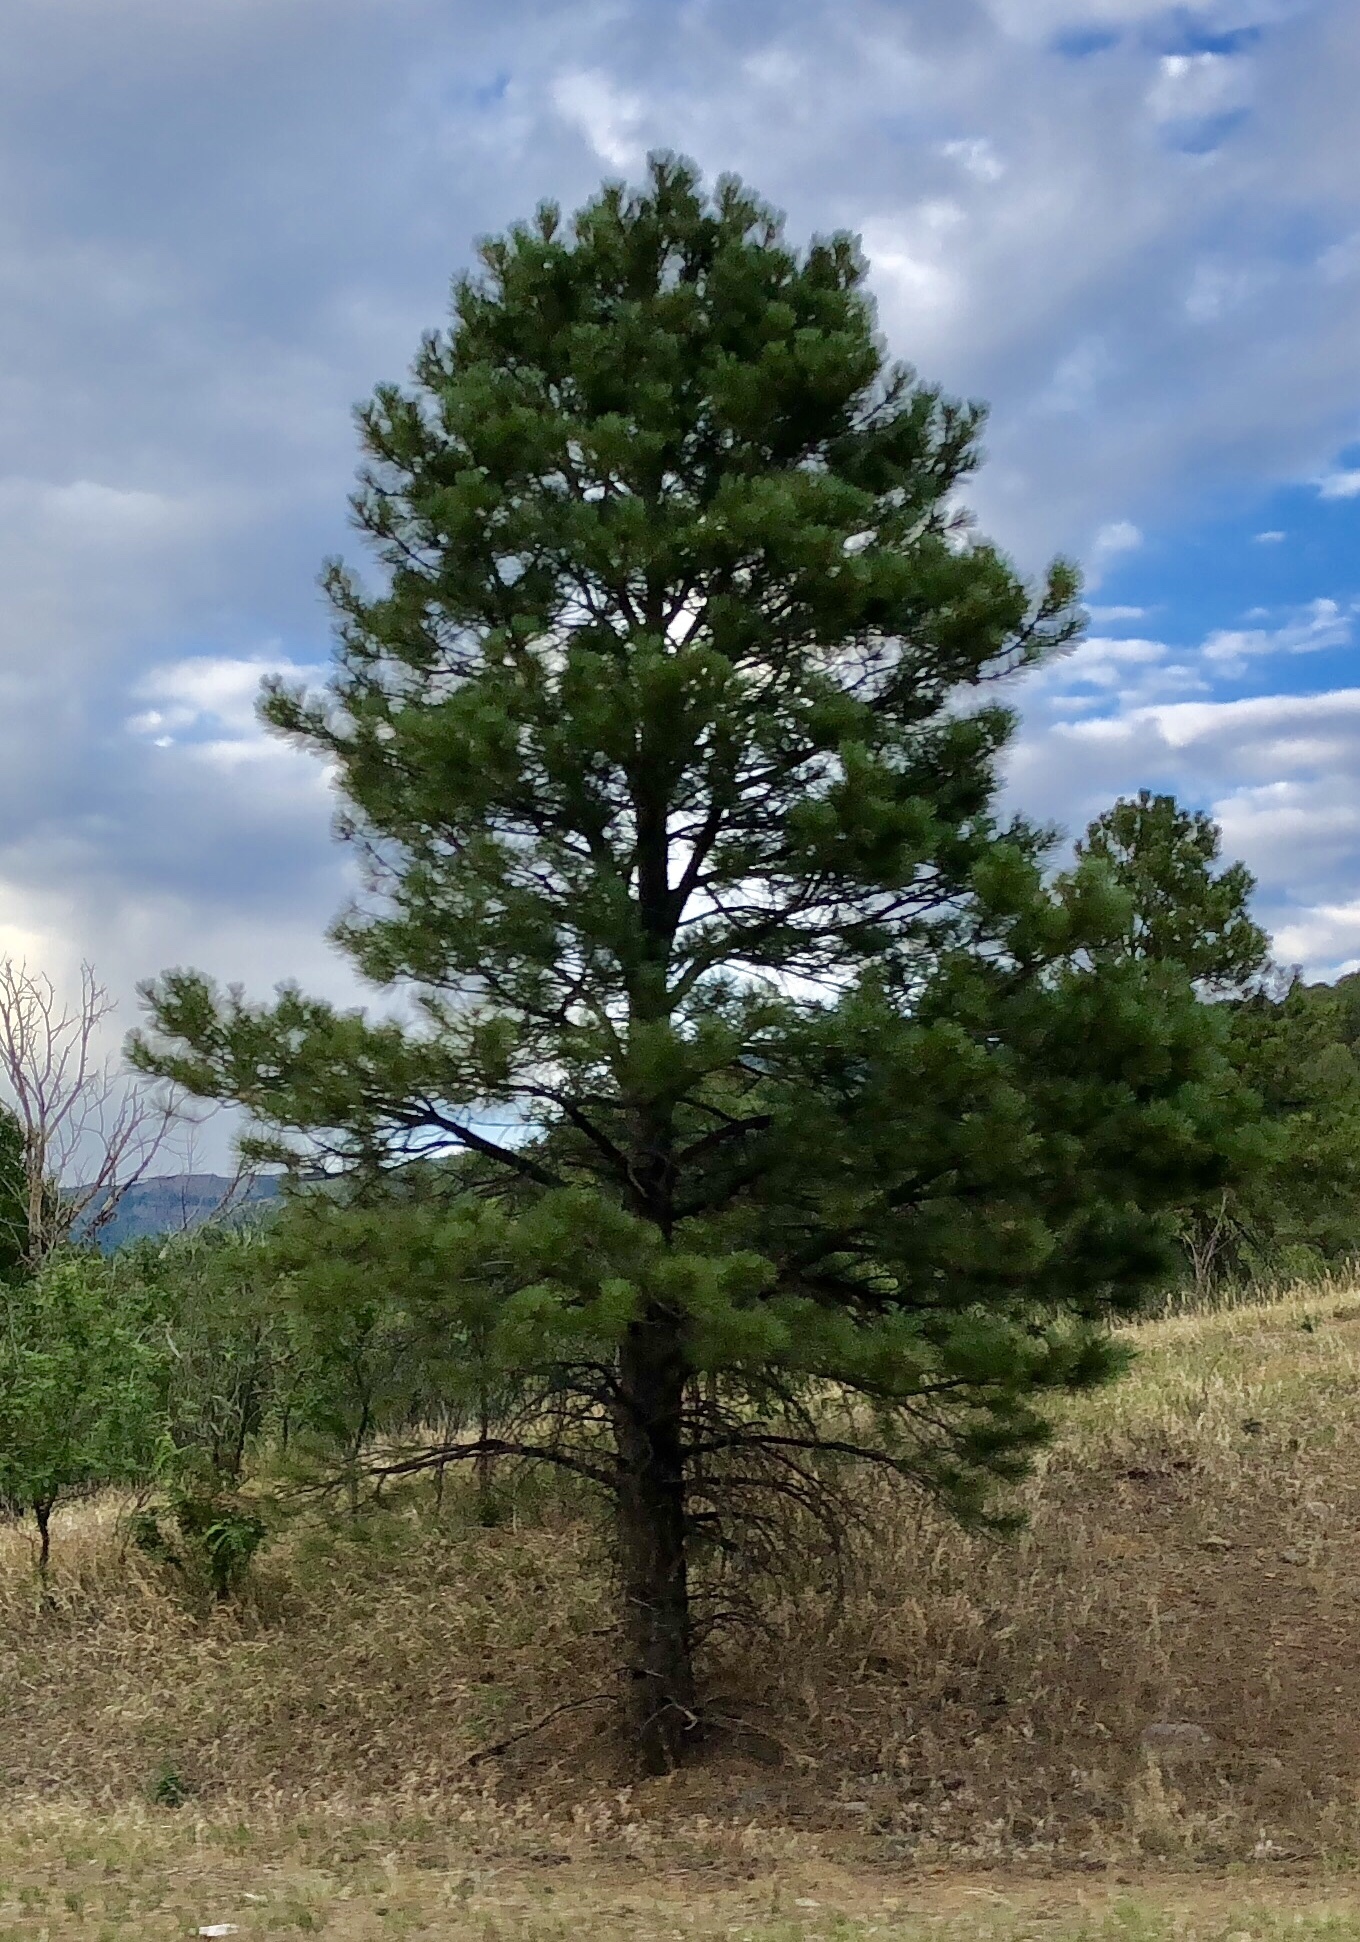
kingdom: Plantae
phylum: Tracheophyta
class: Pinopsida
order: Pinales
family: Pinaceae
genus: Pinus
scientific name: Pinus ponderosa
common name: Western yellow-pine
